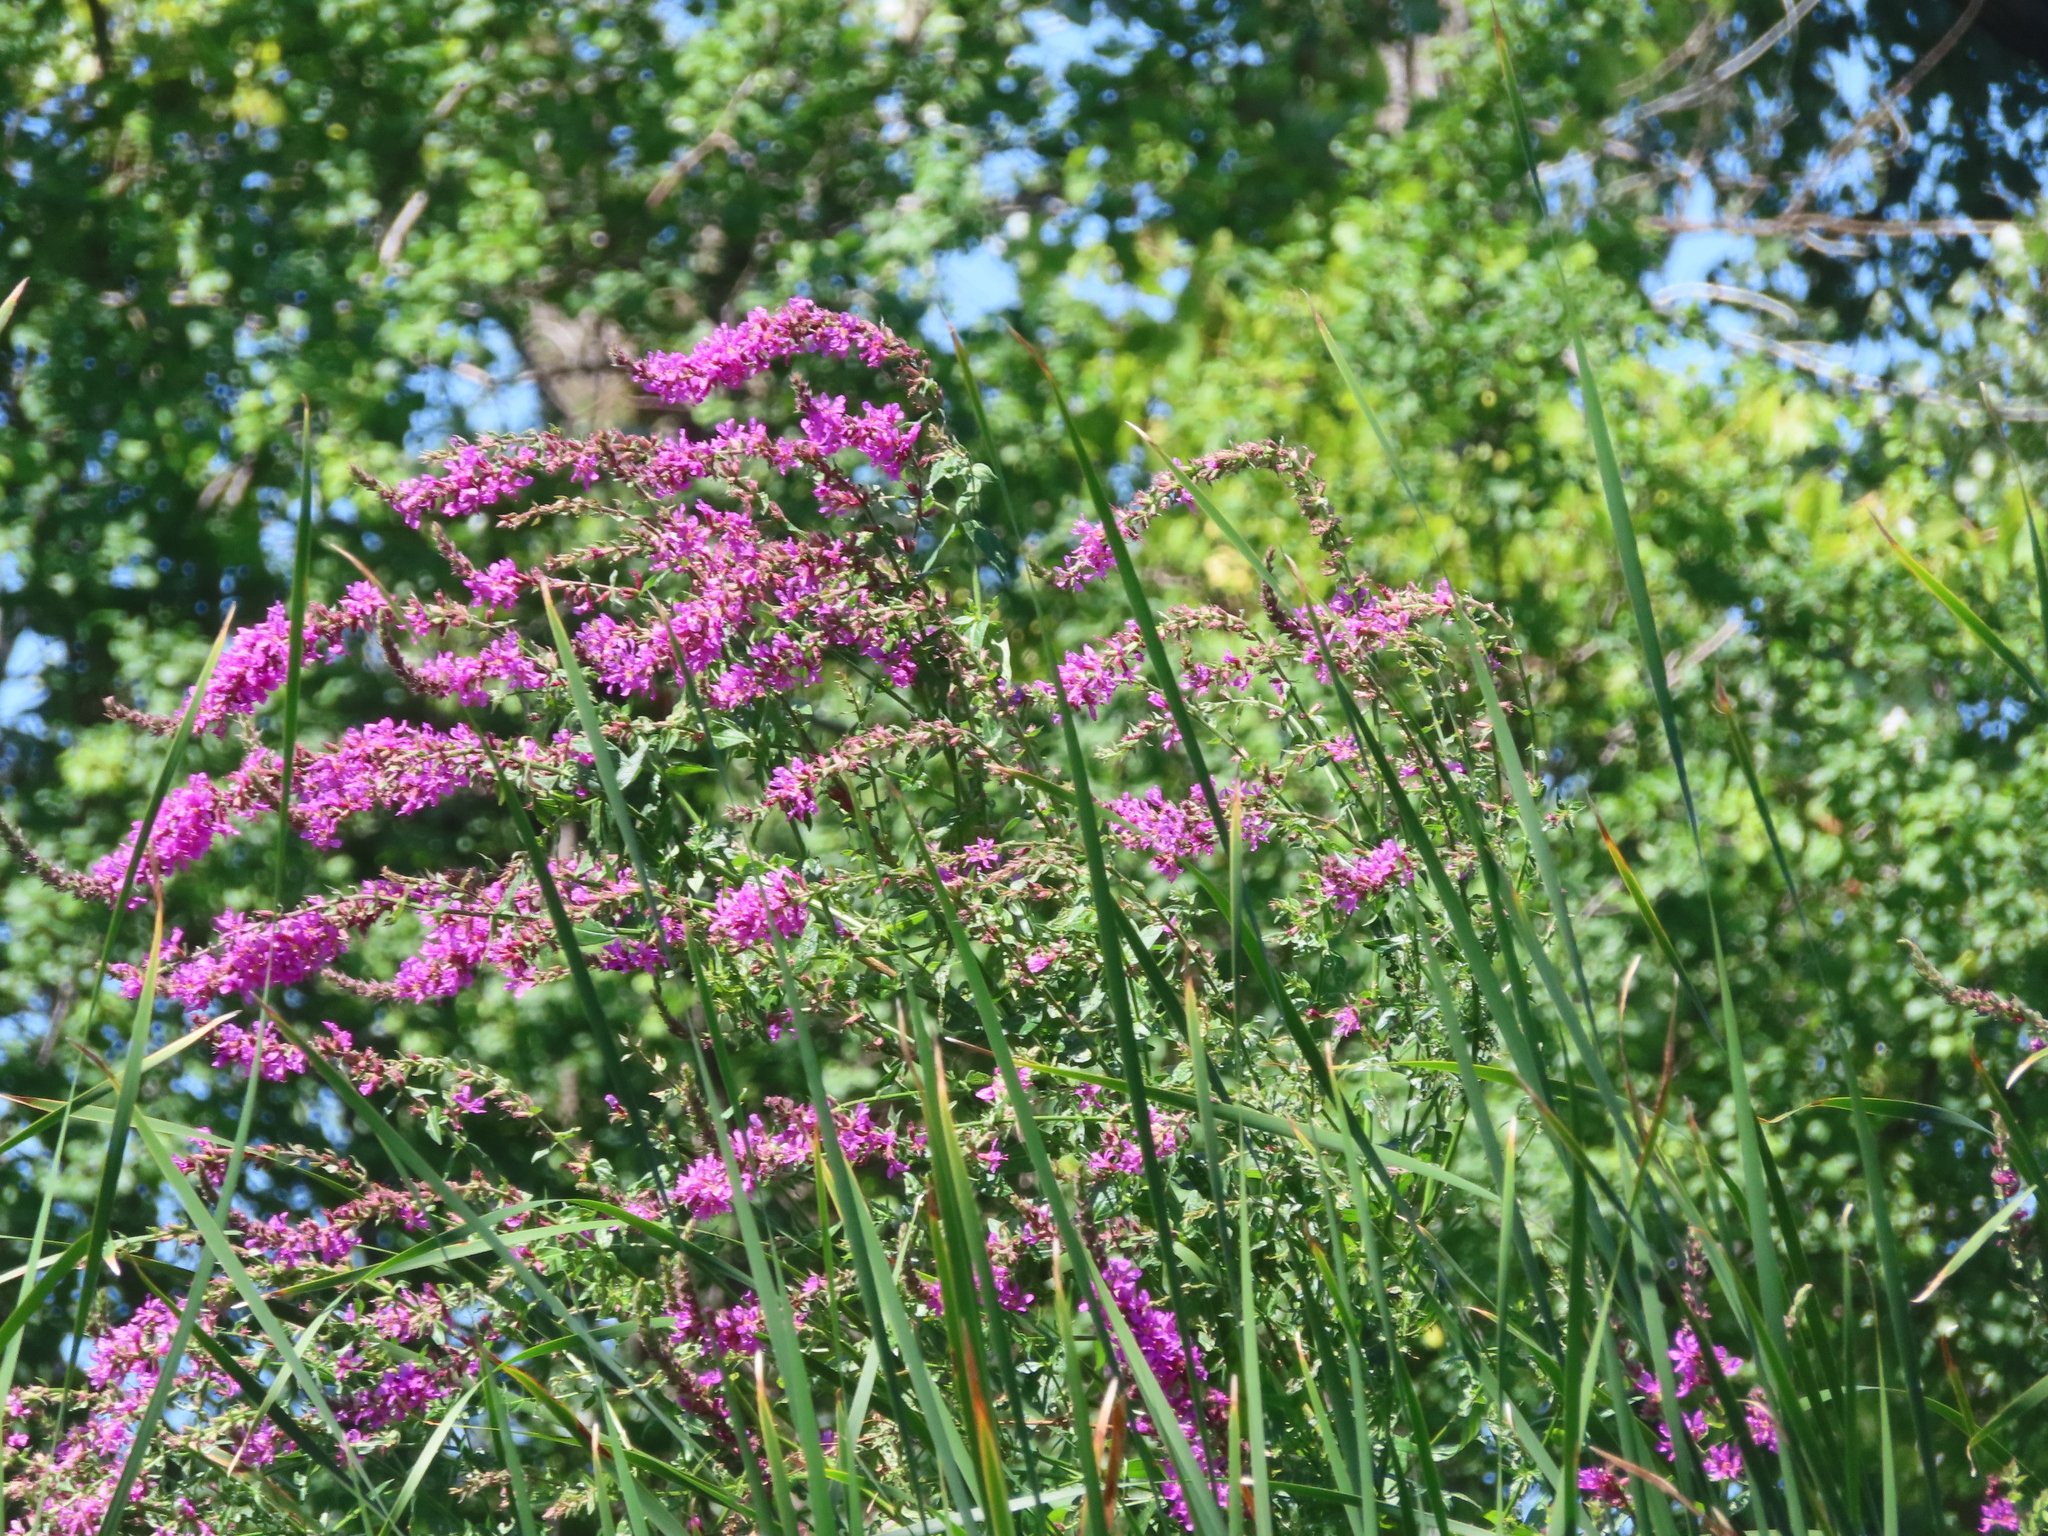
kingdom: Plantae
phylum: Tracheophyta
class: Magnoliopsida
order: Myrtales
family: Lythraceae
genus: Lythrum
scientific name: Lythrum salicaria
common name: Purple loosestrife
